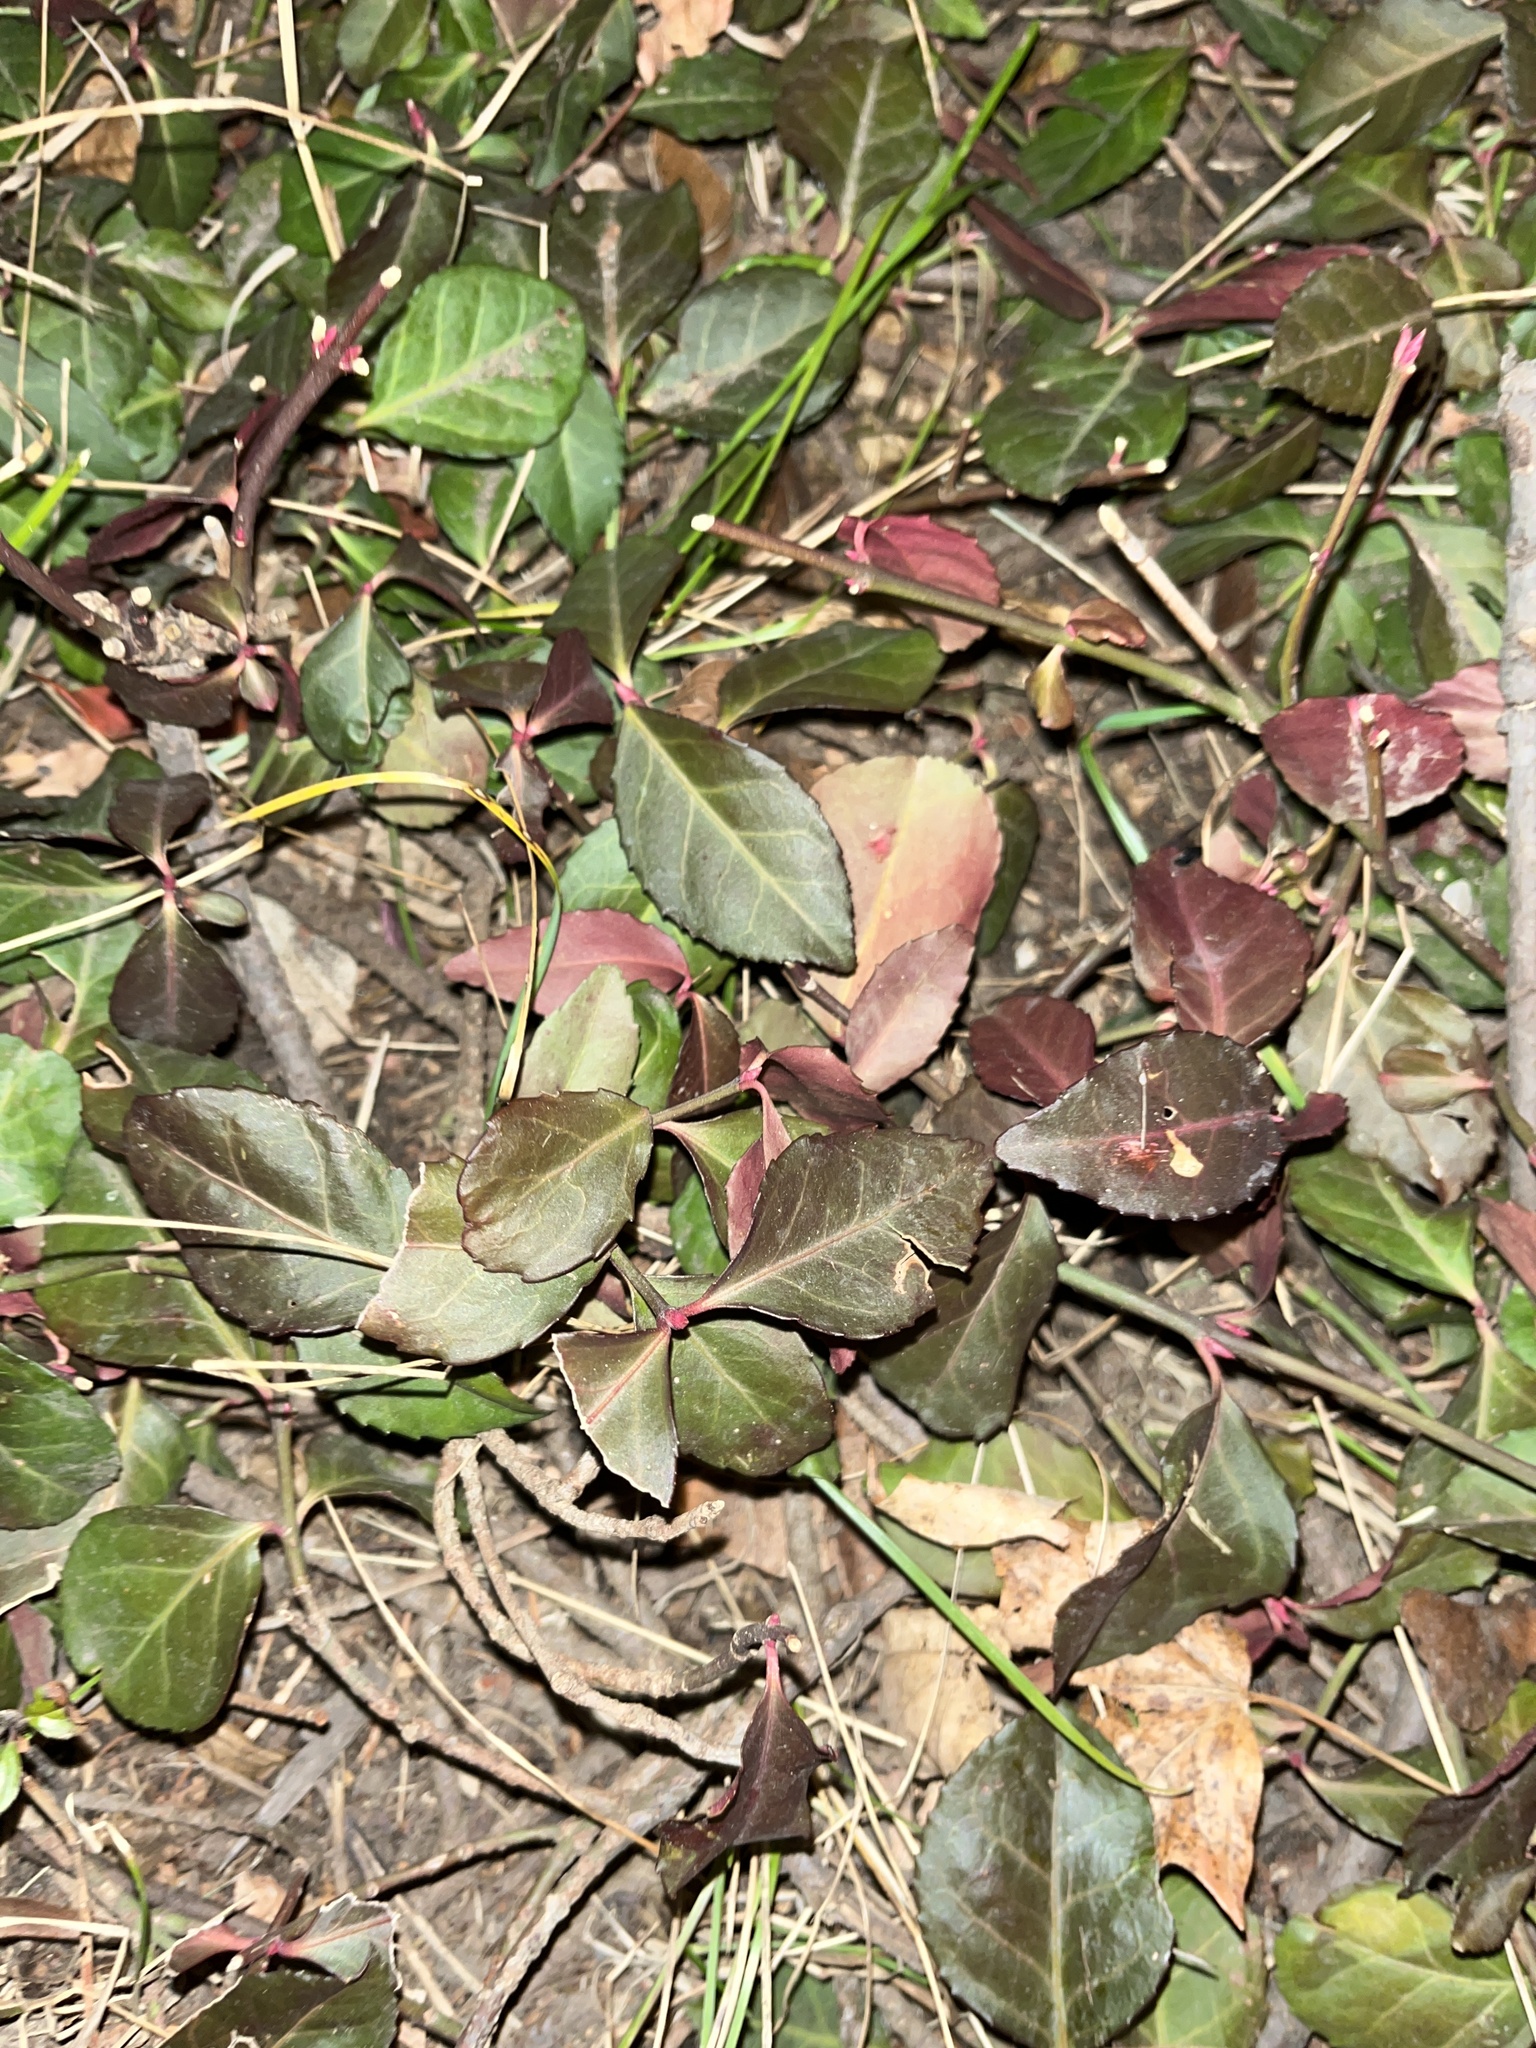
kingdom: Plantae
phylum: Tracheophyta
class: Magnoliopsida
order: Celastrales
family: Celastraceae
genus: Euonymus
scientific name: Euonymus fortunei
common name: Climbing euonymus
